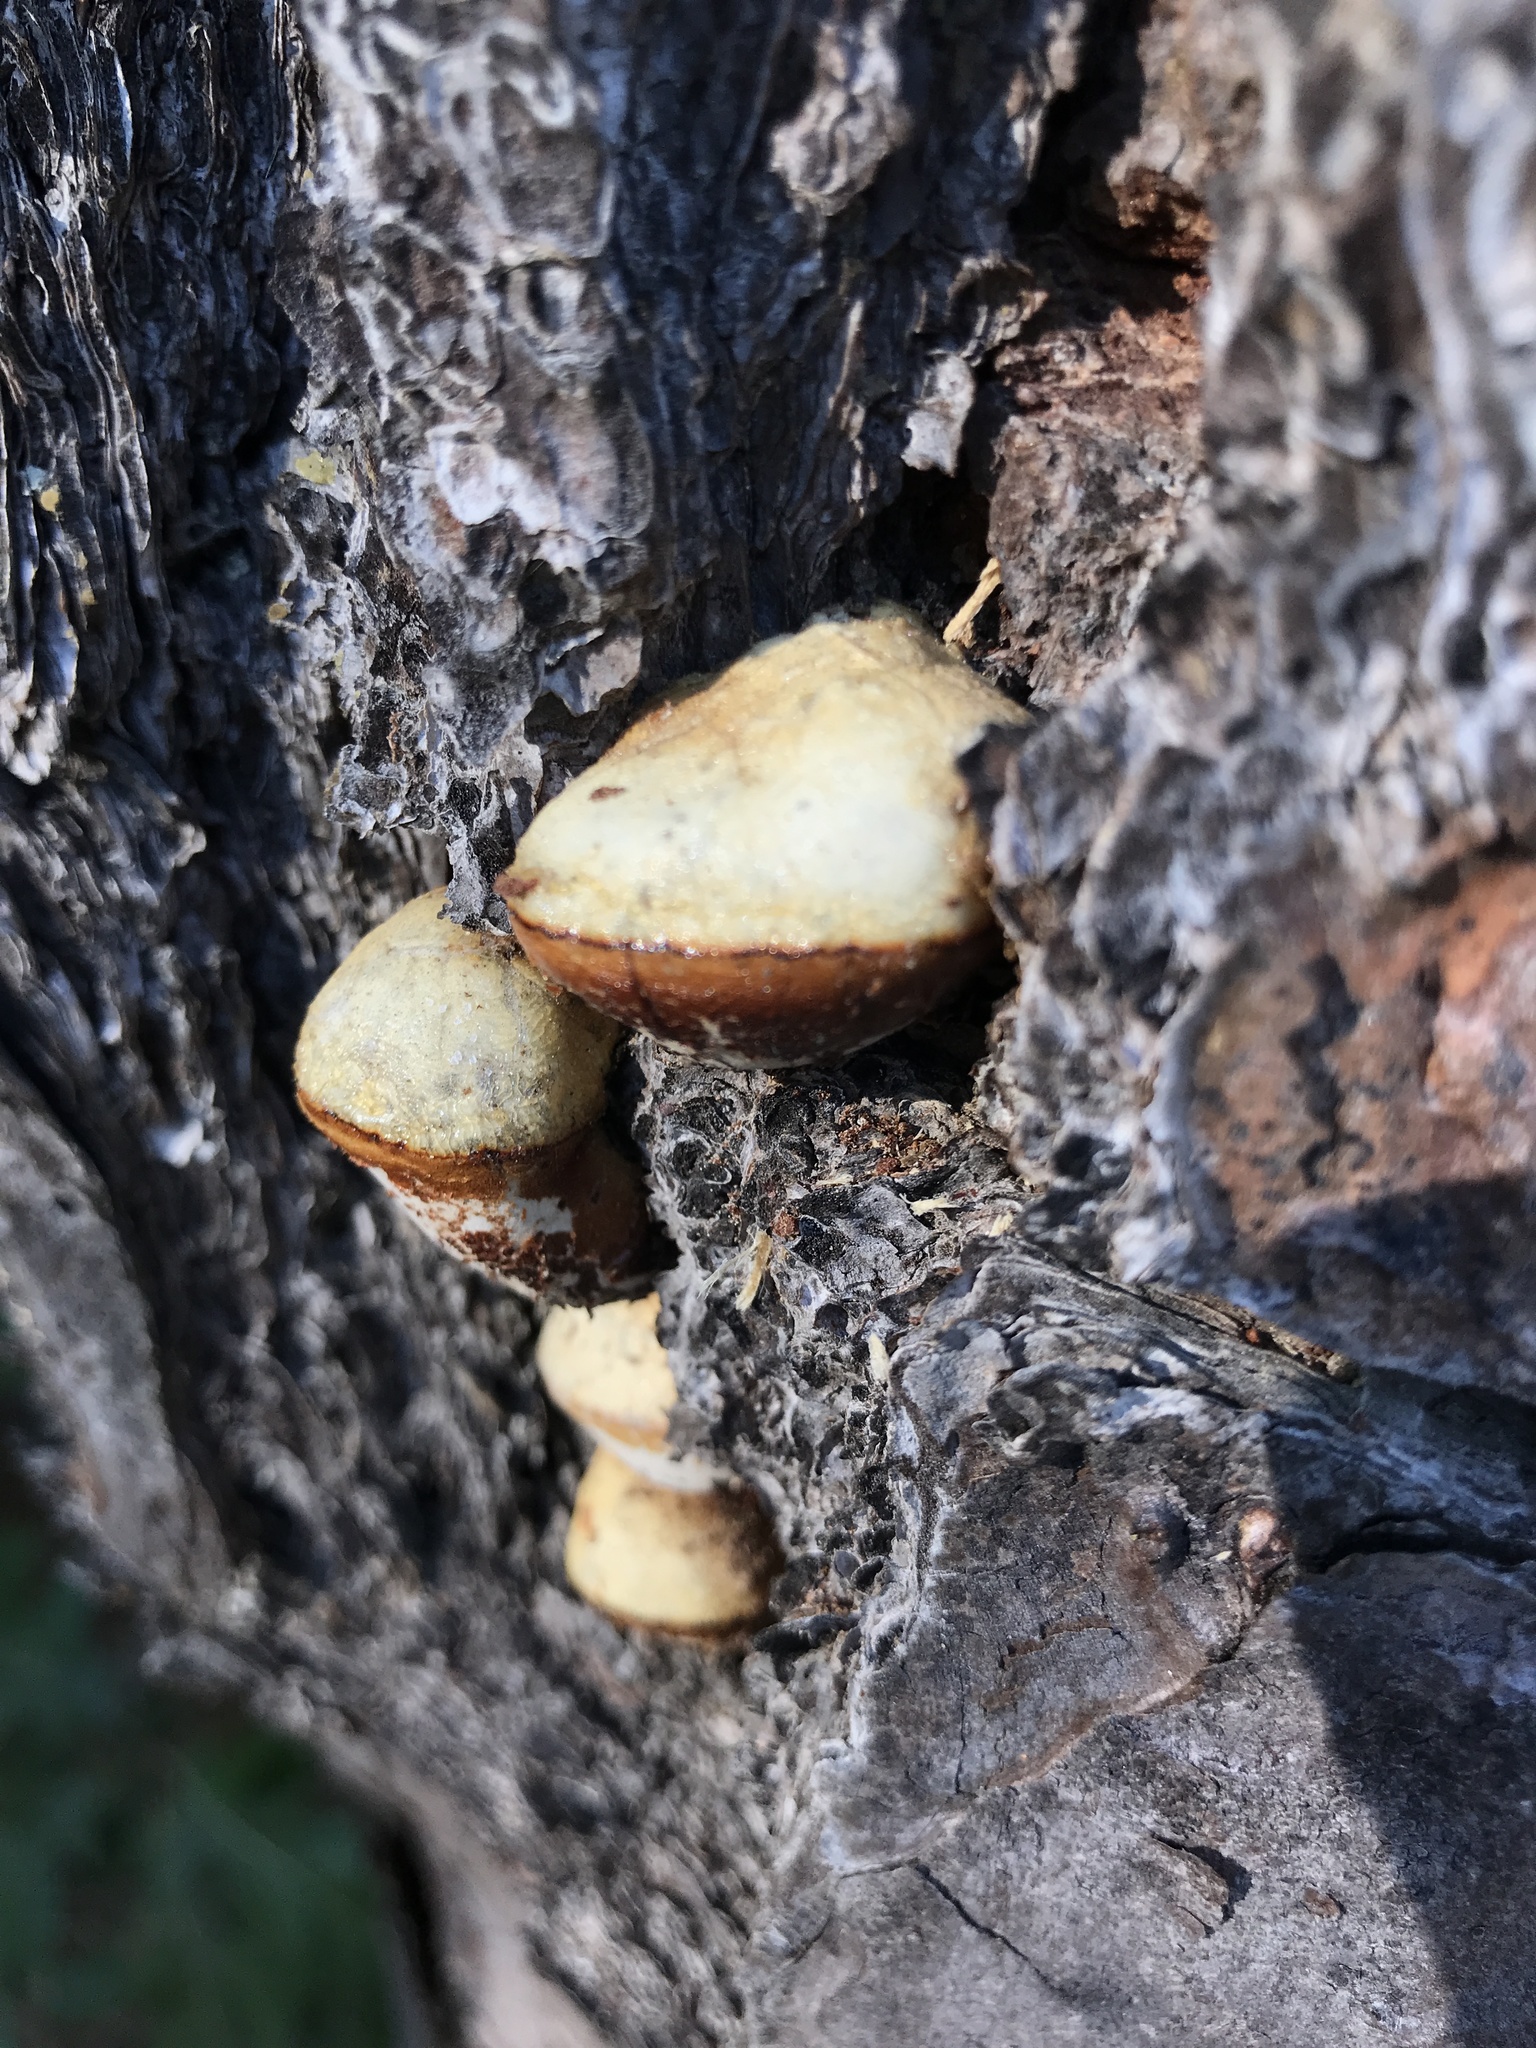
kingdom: Fungi
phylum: Basidiomycota
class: Agaricomycetes
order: Polyporales
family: Polyporaceae
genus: Cryptoporus
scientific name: Cryptoporus volvatus
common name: Veiled polypore
